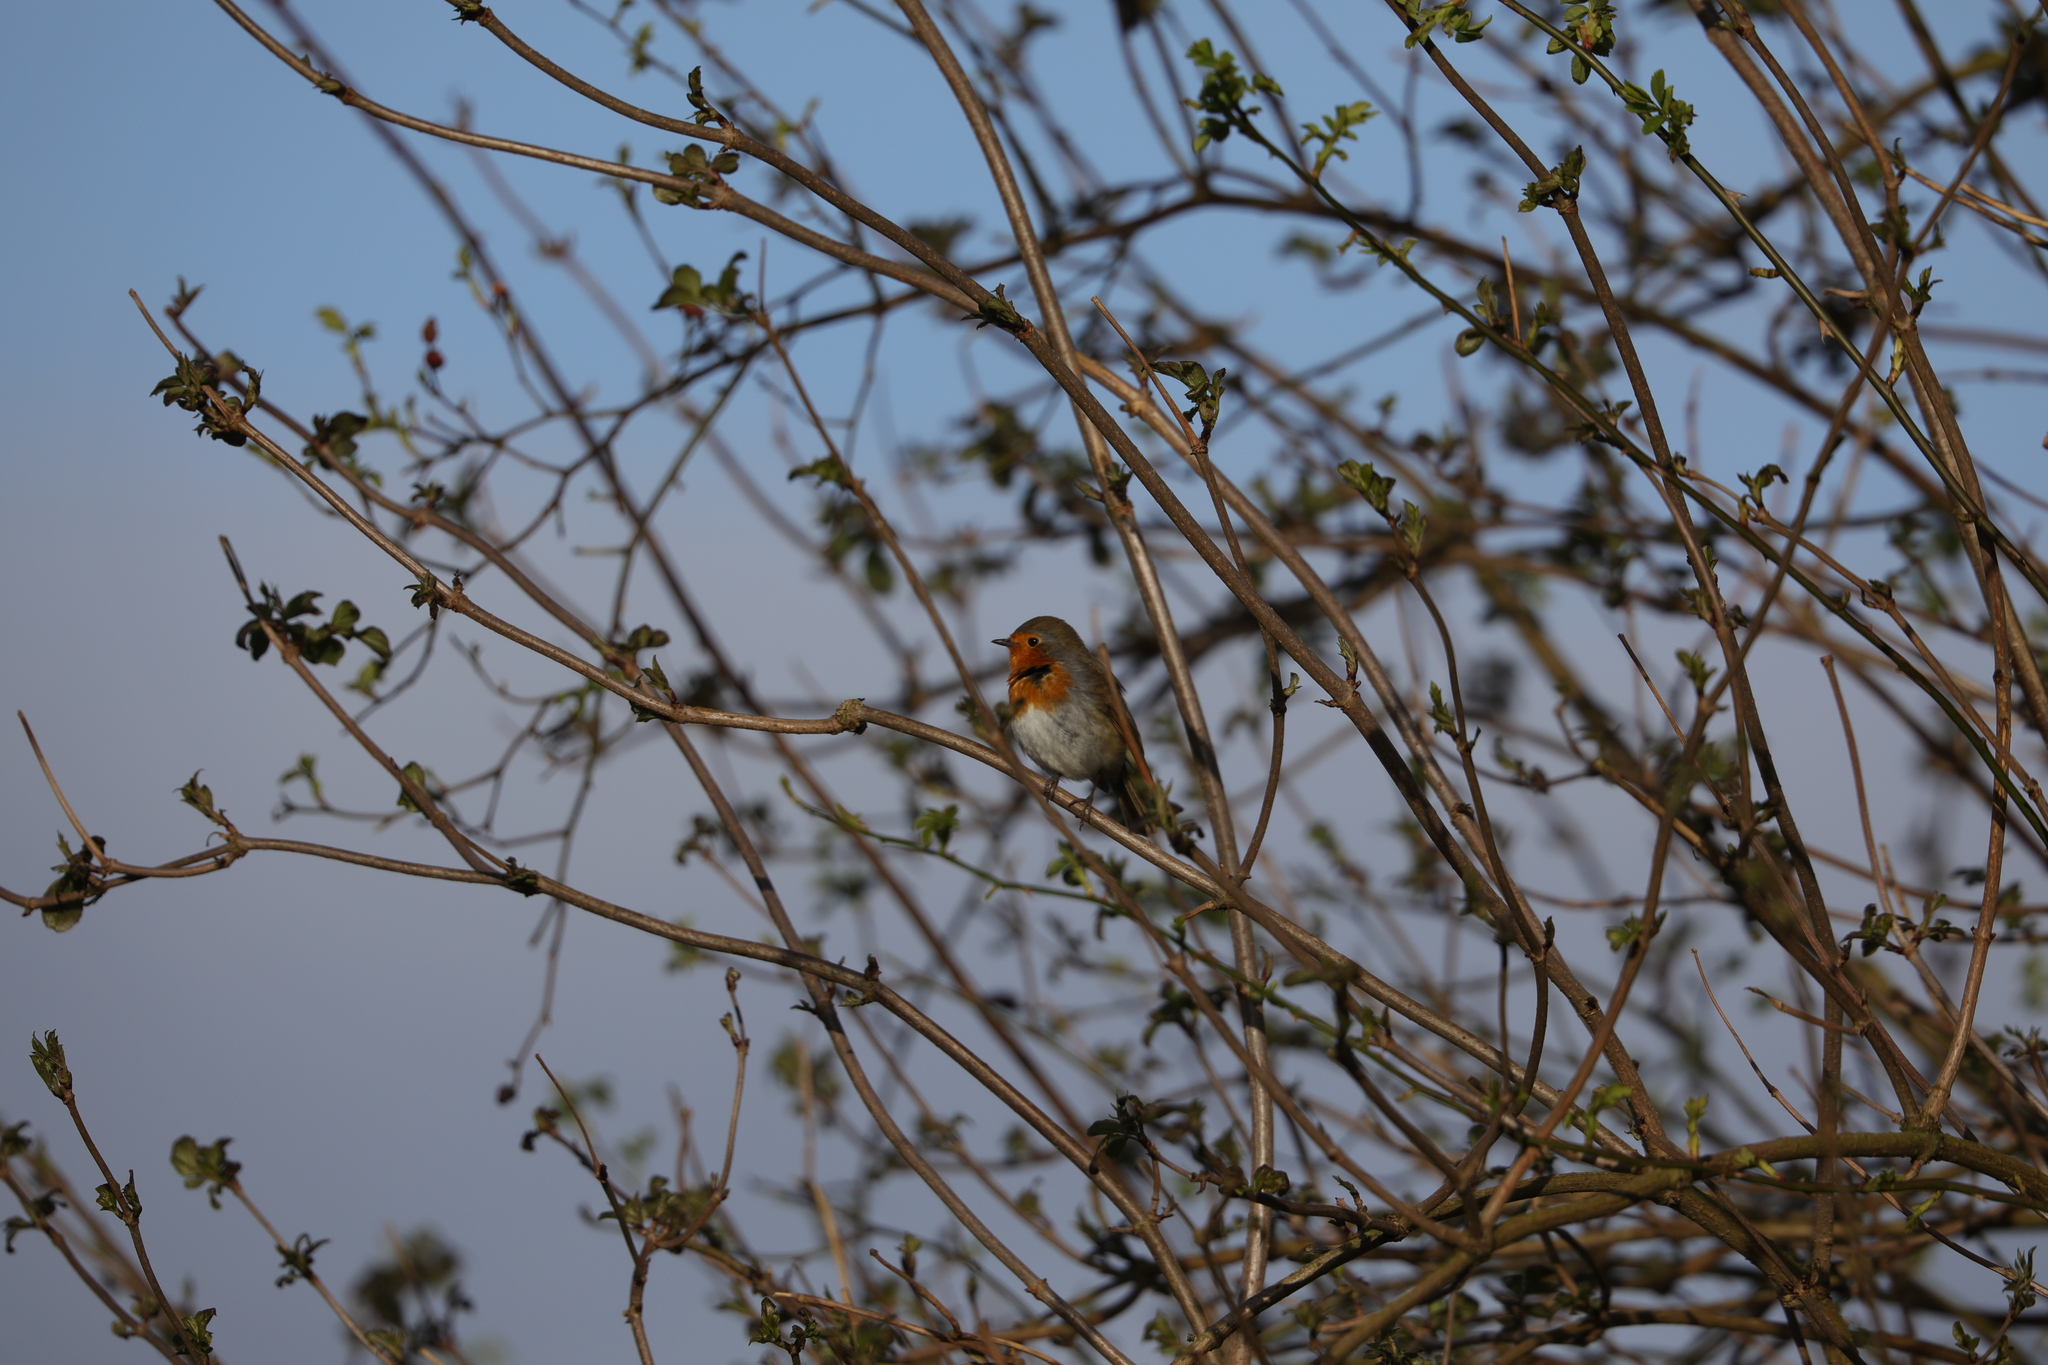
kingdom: Animalia
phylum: Chordata
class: Aves
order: Passeriformes
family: Muscicapidae
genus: Erithacus
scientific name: Erithacus rubecula
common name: European robin
